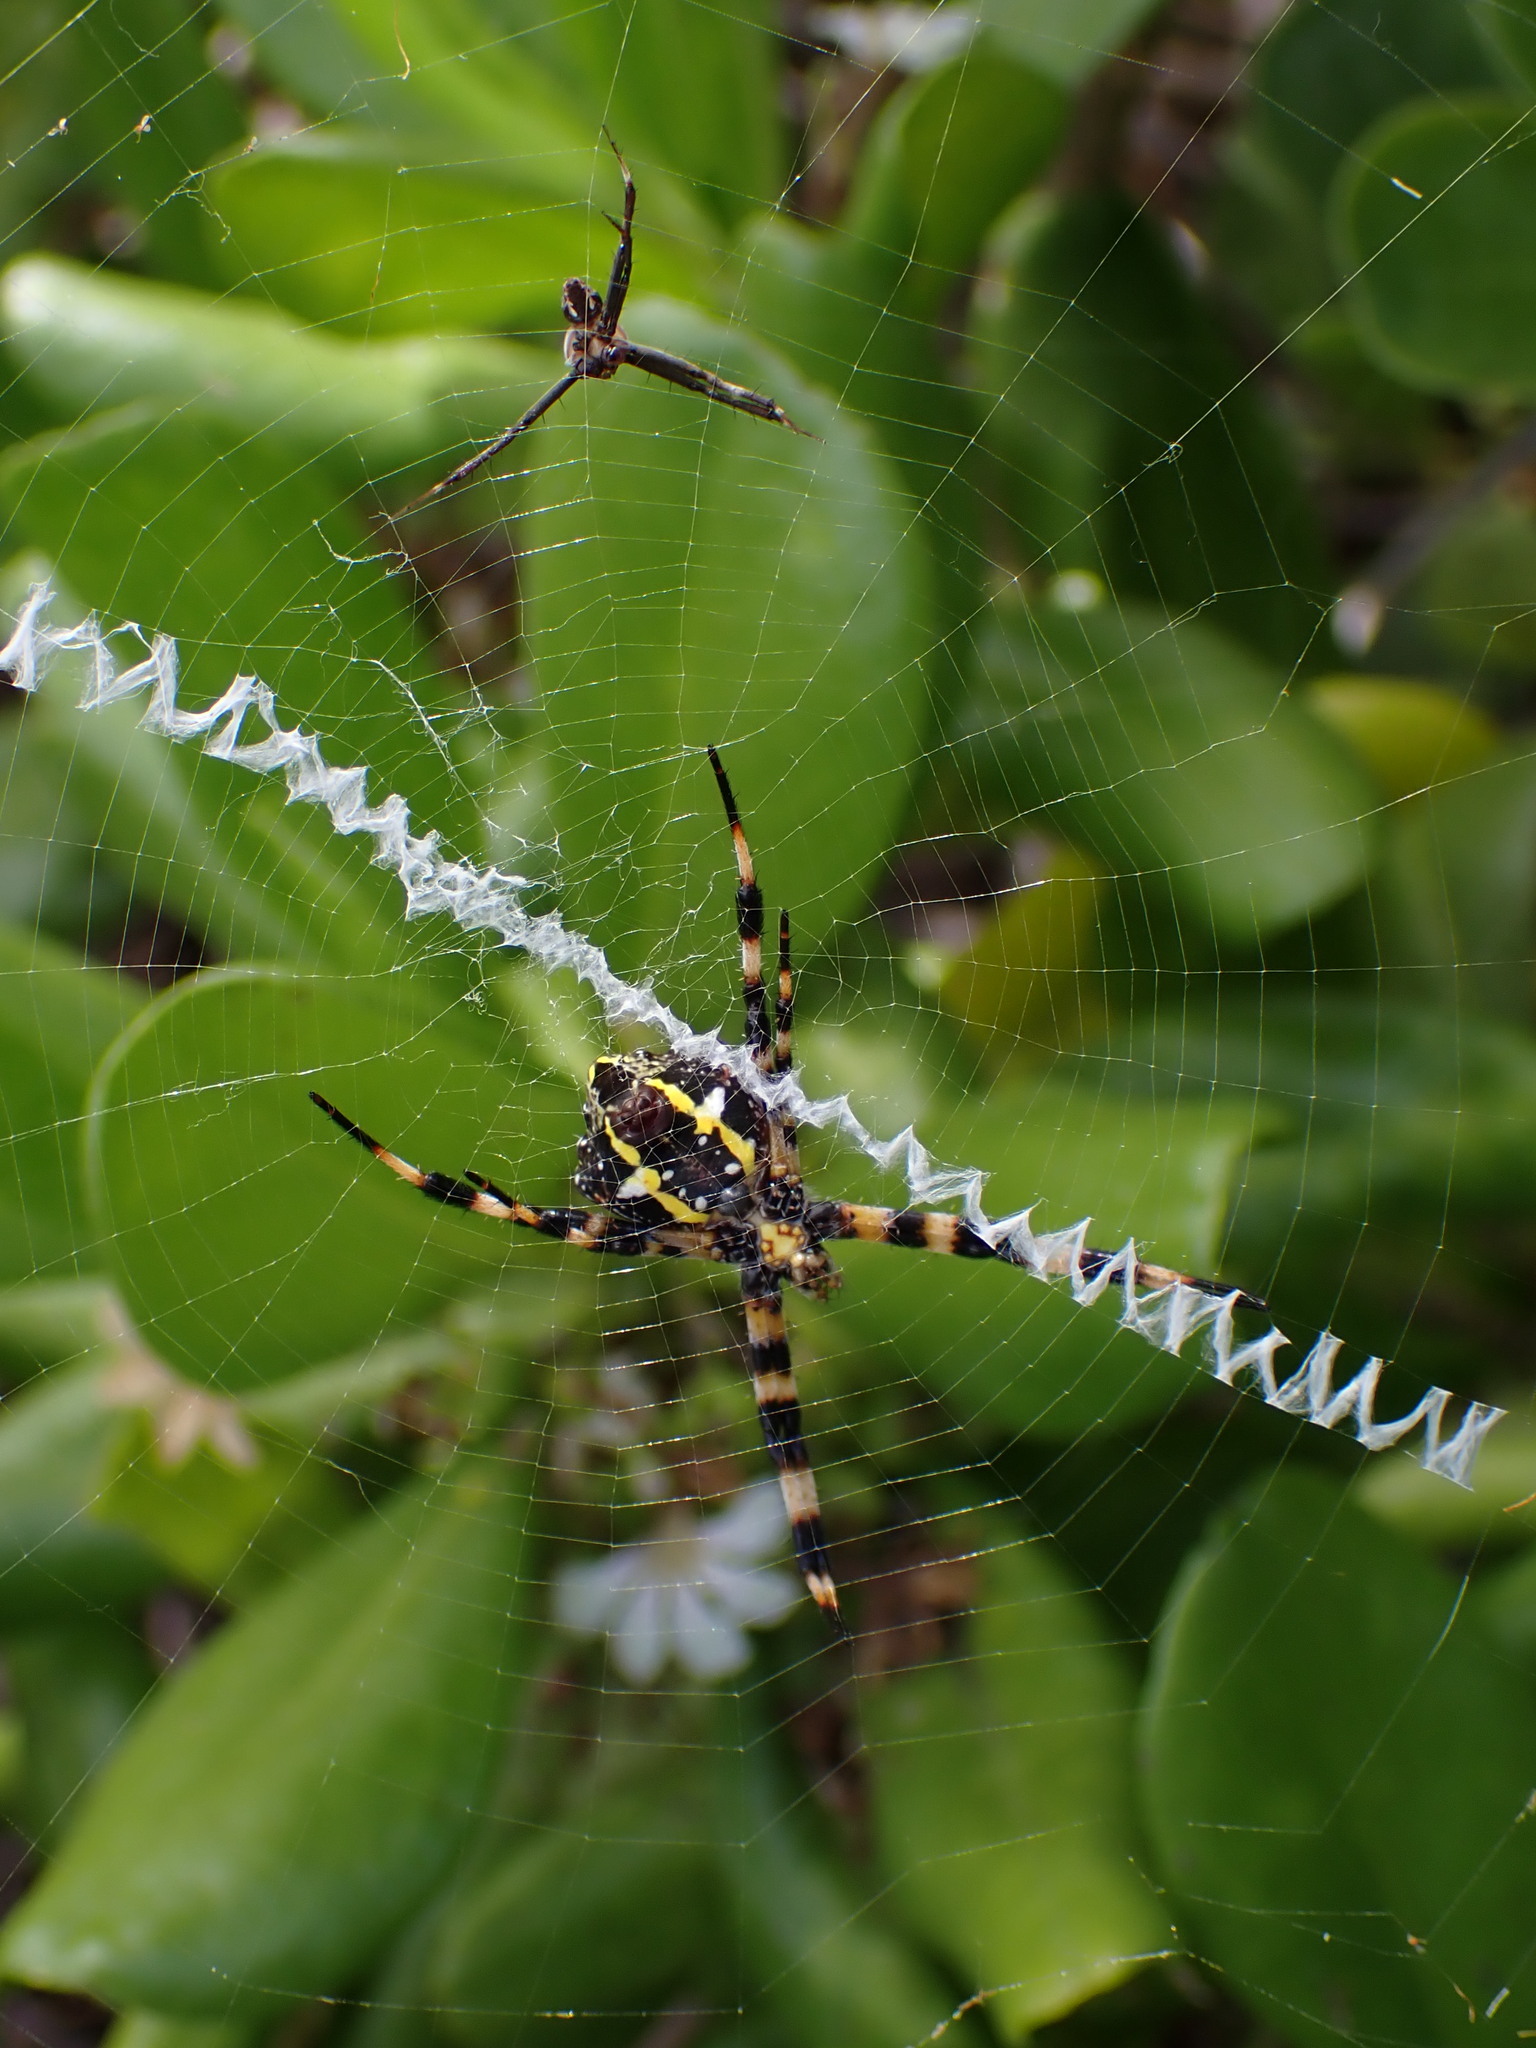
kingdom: Animalia
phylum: Arthropoda
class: Arachnida
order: Araneae
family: Araneidae
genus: Argiope
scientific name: Argiope appensa
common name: Garden spider
